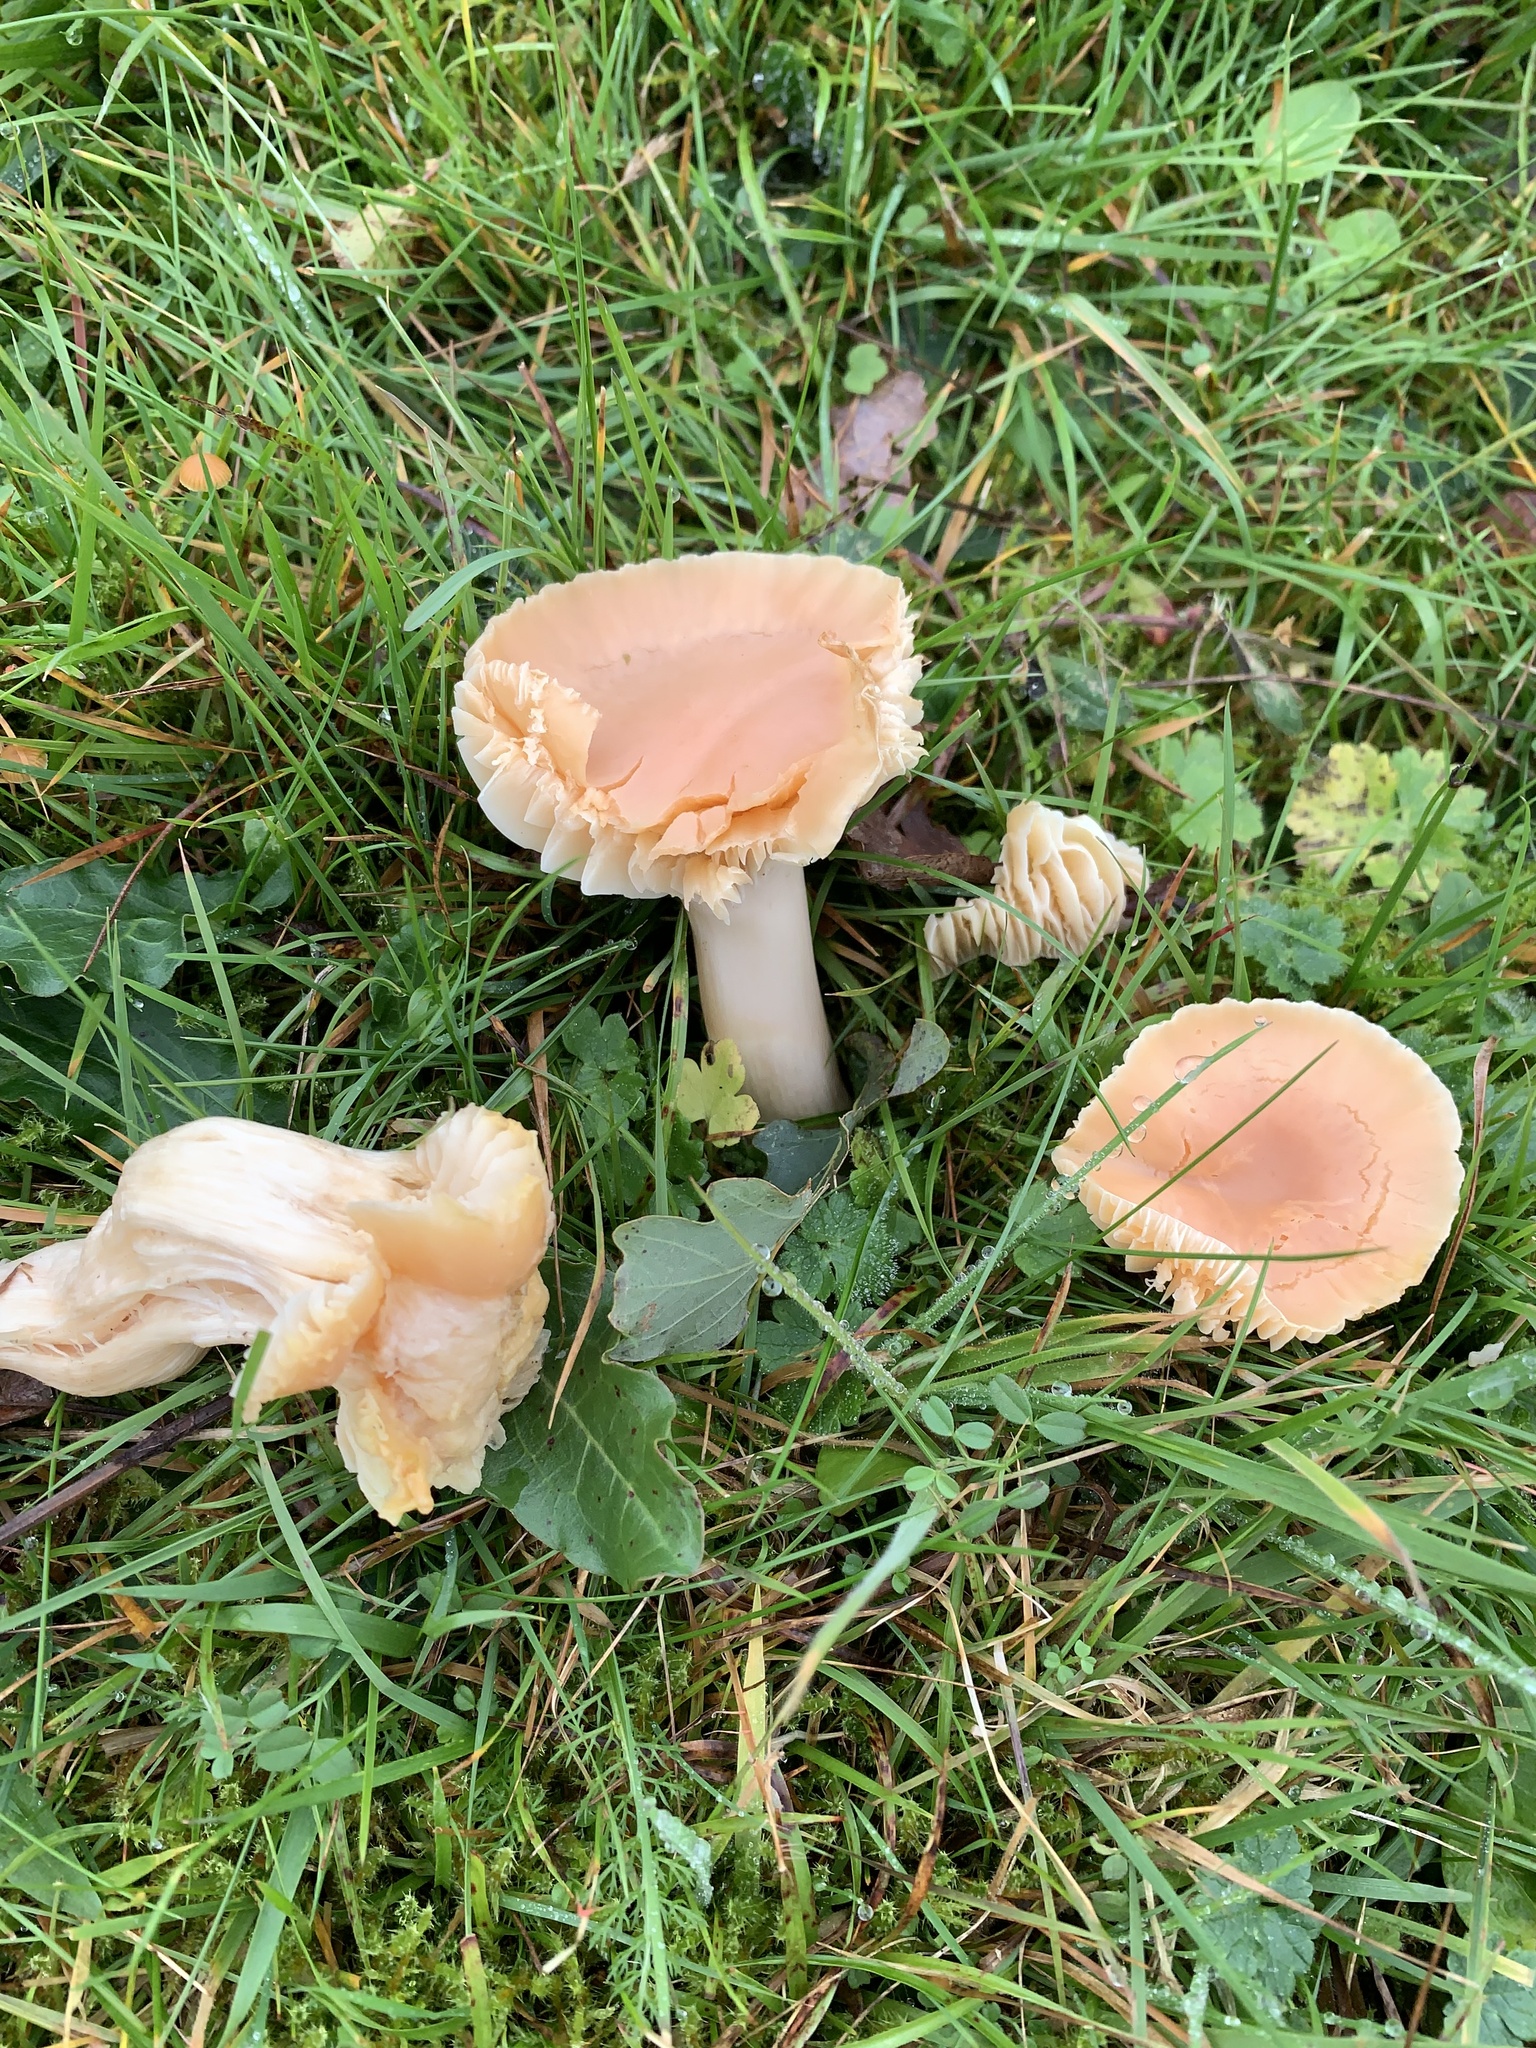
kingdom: Fungi
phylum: Basidiomycota
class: Agaricomycetes
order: Agaricales
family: Hygrophoraceae
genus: Cuphophyllus
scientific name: Cuphophyllus pratensis
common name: Meadow waxcap
